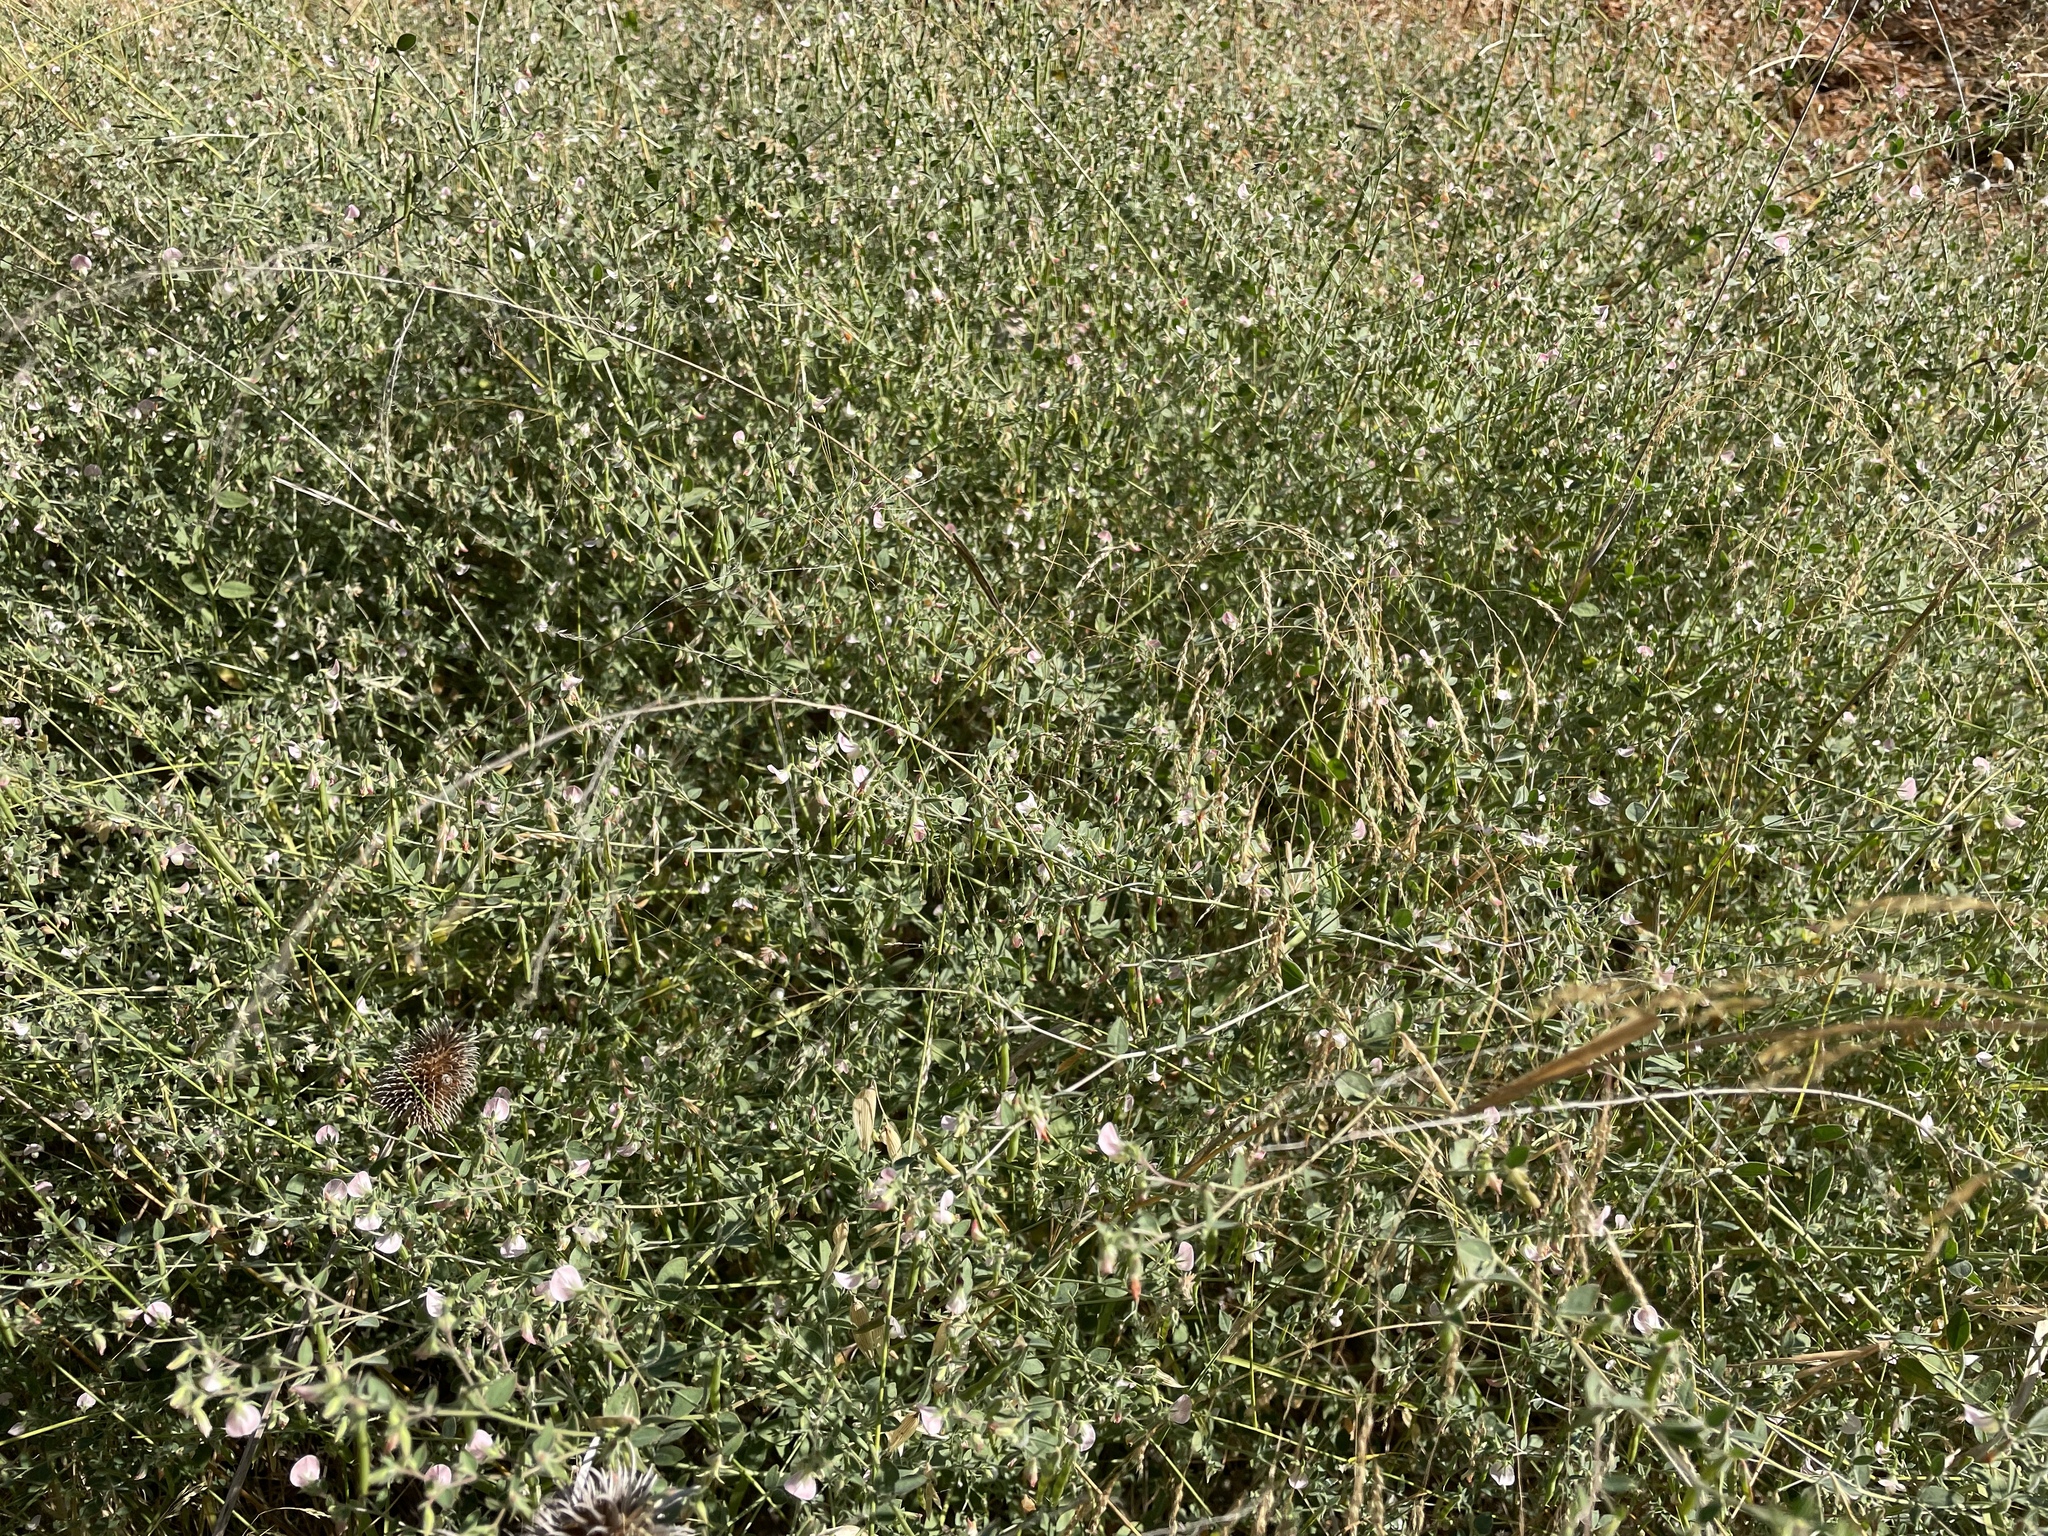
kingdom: Plantae
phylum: Tracheophyta
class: Magnoliopsida
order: Fabales
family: Fabaceae
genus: Acmispon
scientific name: Acmispon americanus
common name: American bird's-foot trefoil
